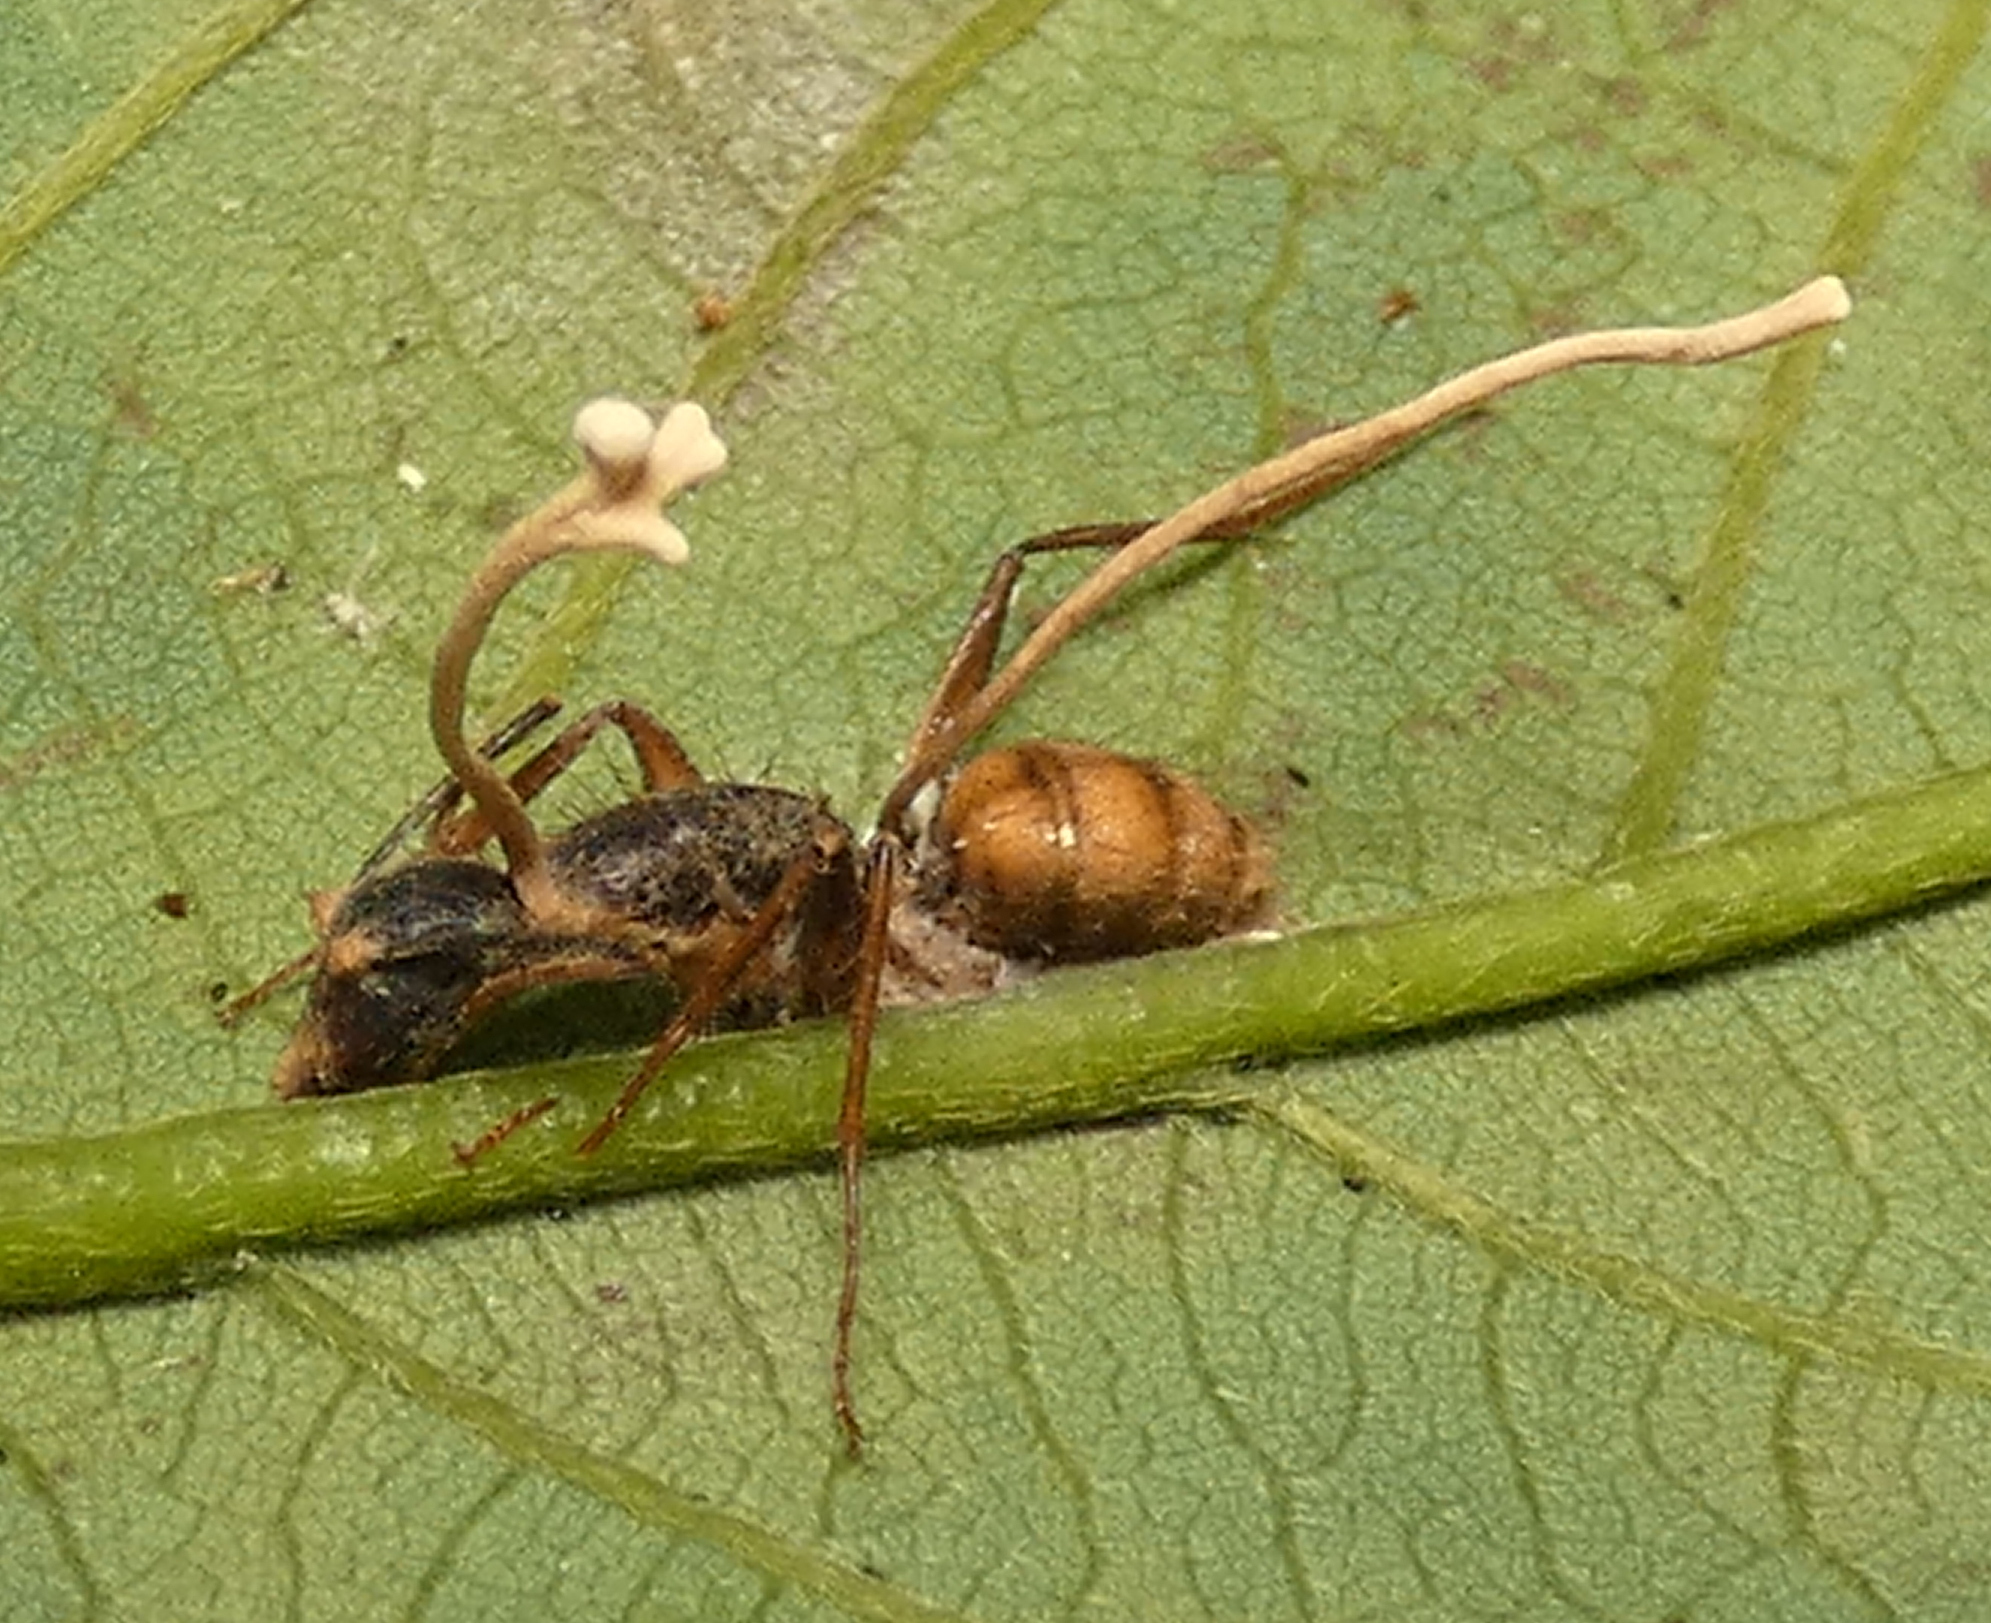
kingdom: Animalia
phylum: Arthropoda
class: Insecta
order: Hymenoptera
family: Formicidae
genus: Camponotus
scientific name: Camponotus atriceps
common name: Florida carpenter ant
